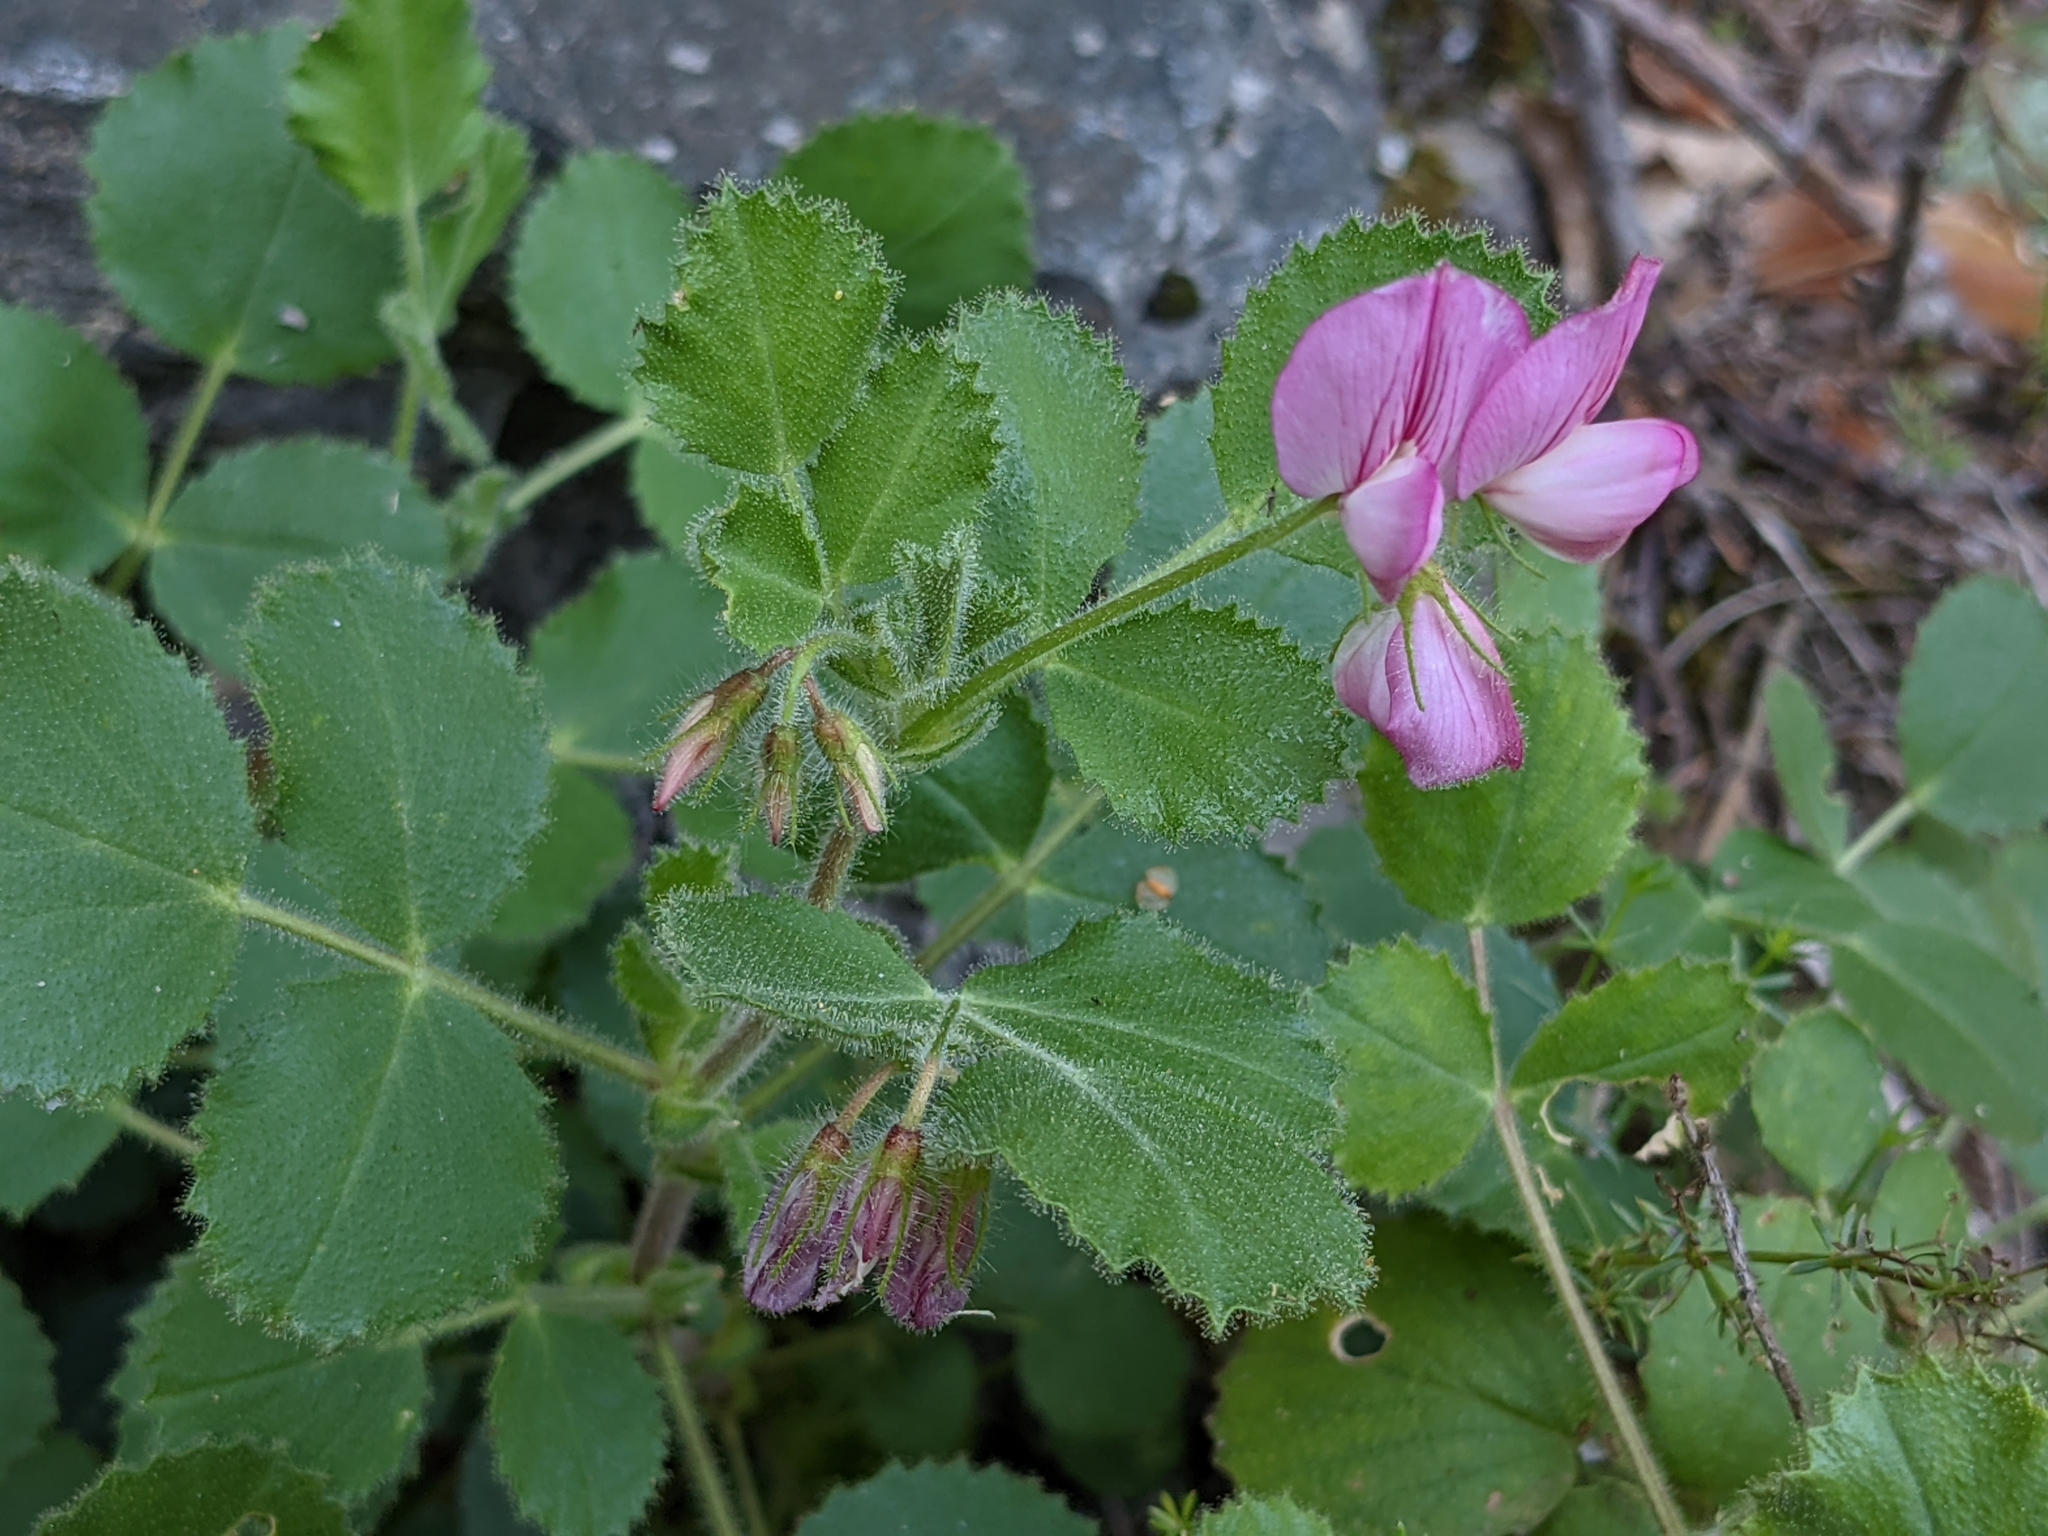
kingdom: Plantae
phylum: Tracheophyta
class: Magnoliopsida
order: Fabales
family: Fabaceae
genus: Ononis
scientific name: Ononis rotundifolia
